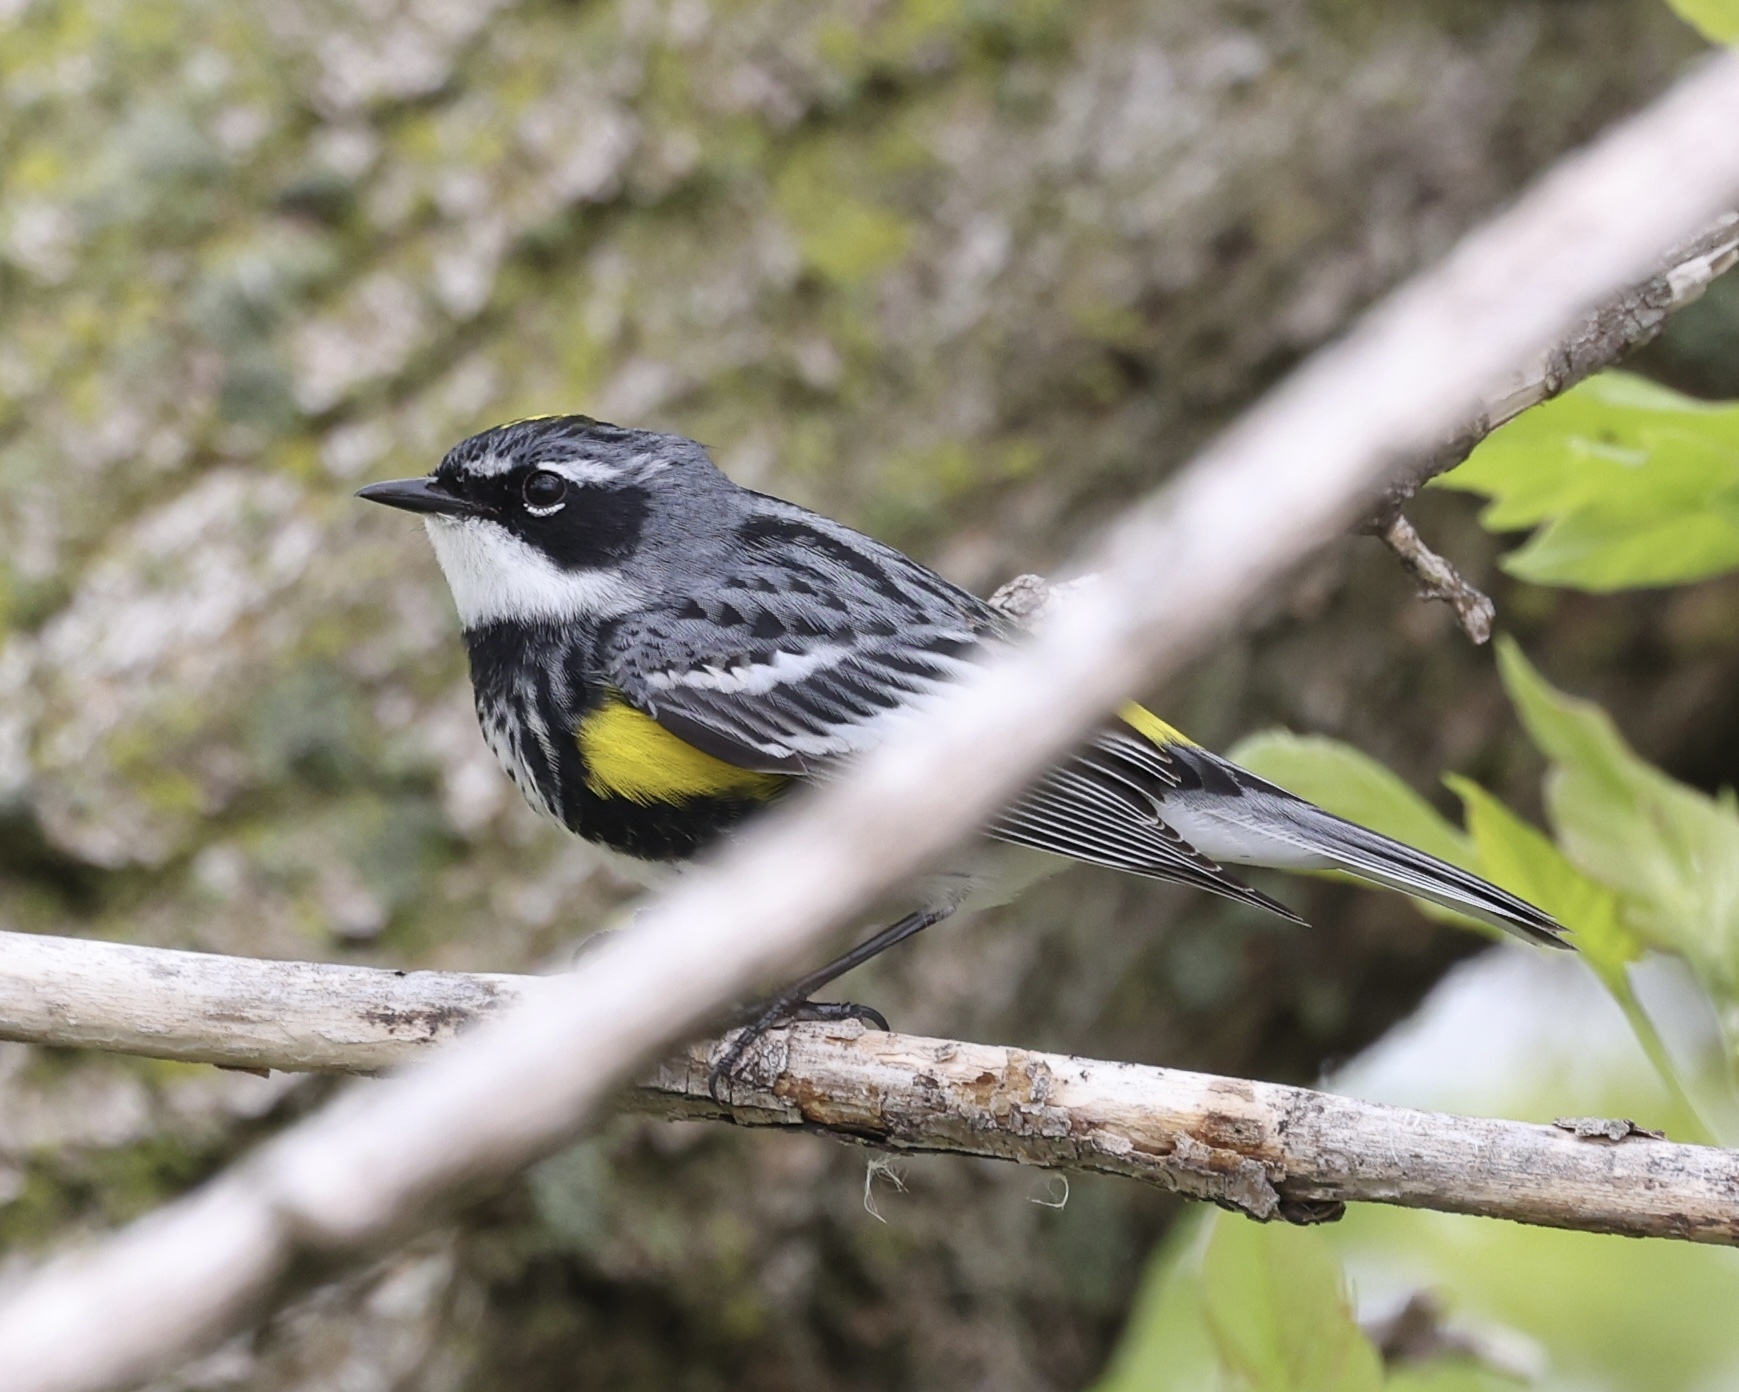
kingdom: Animalia
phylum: Chordata
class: Aves
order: Passeriformes
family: Parulidae
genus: Setophaga
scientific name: Setophaga coronata
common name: Myrtle warbler
